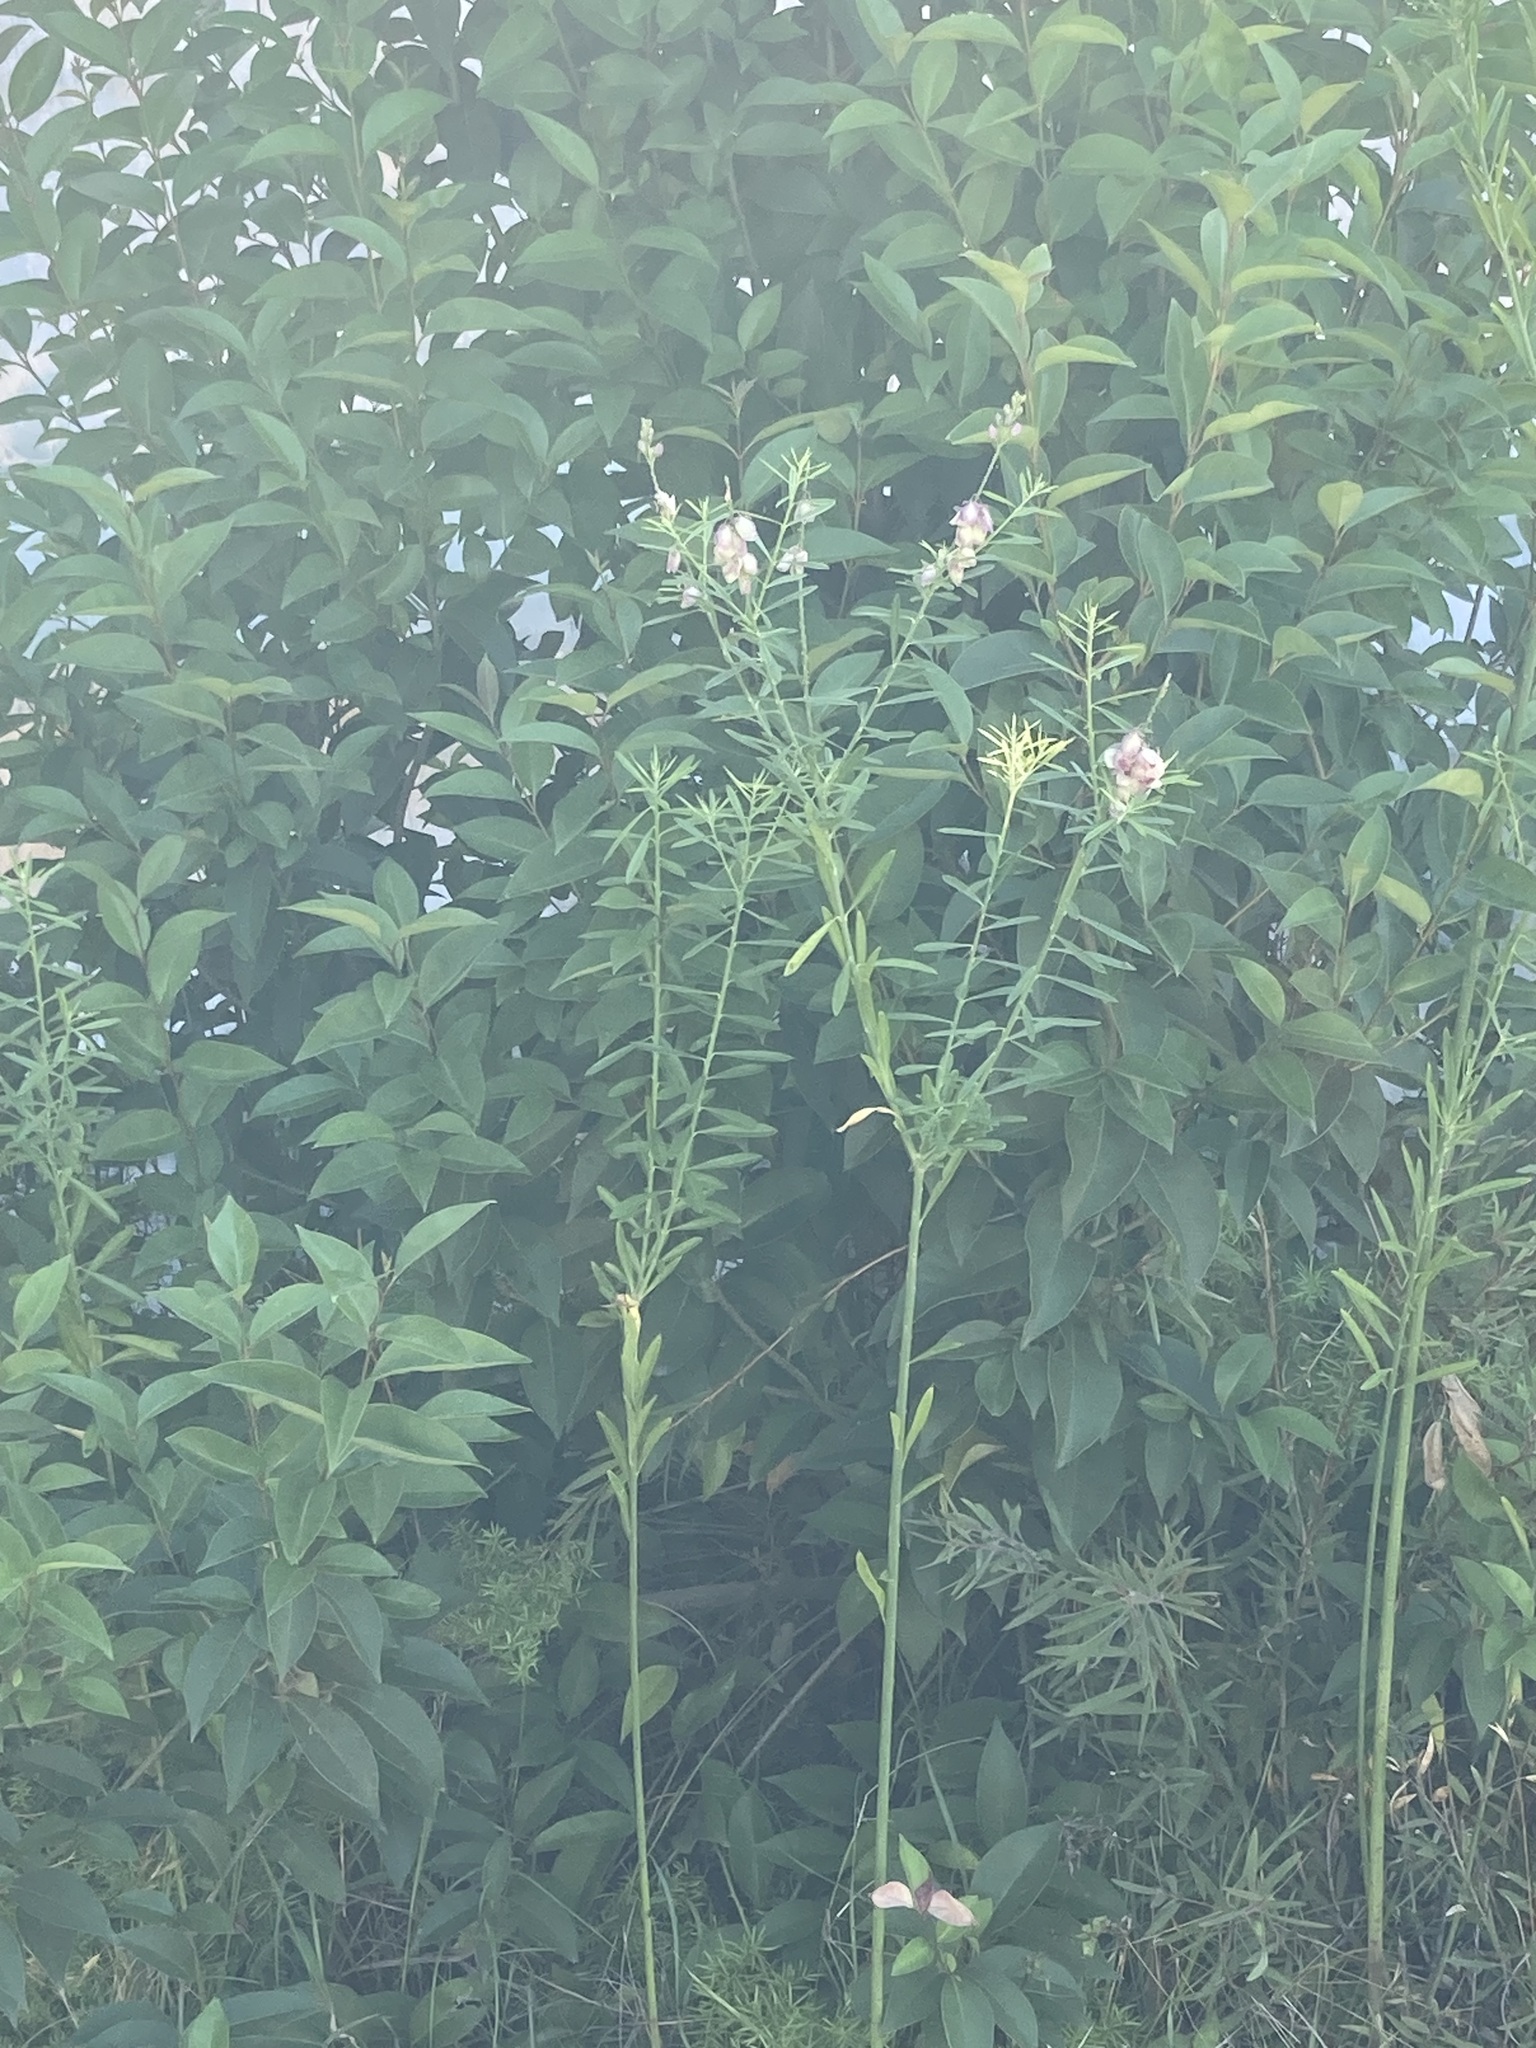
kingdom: Plantae
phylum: Tracheophyta
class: Magnoliopsida
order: Fabales
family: Polygalaceae
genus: Polygala
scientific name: Polygala virgata
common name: Milkwort
